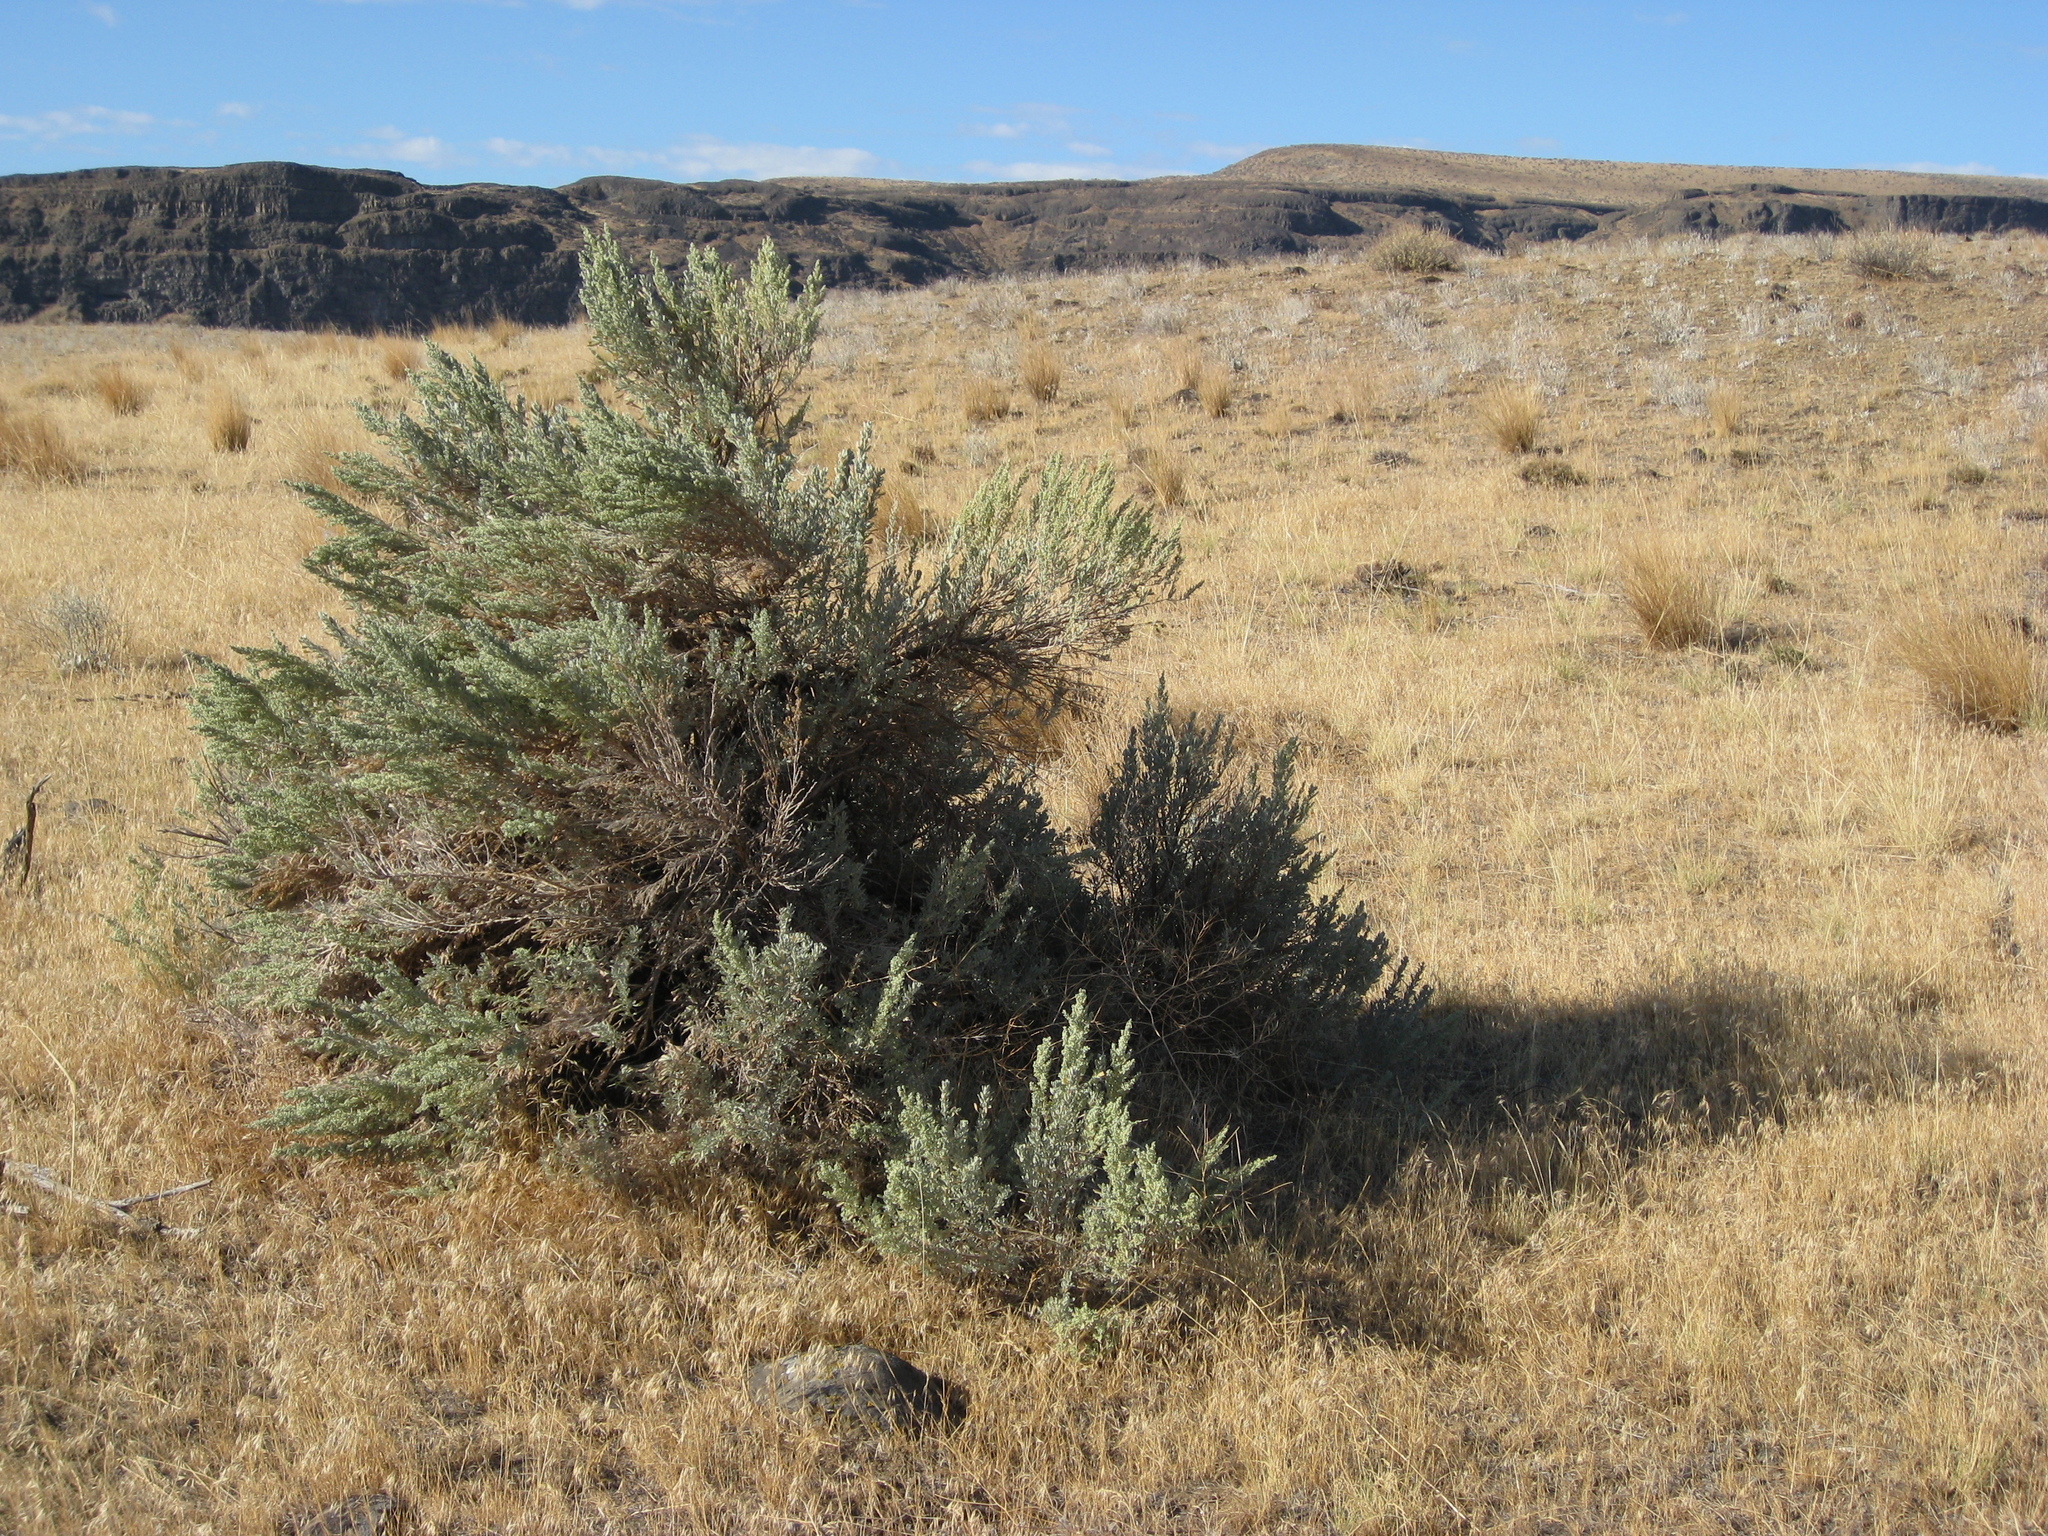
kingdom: Plantae
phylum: Tracheophyta
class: Magnoliopsida
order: Asterales
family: Asteraceae
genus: Artemisia
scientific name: Artemisia tridentata
